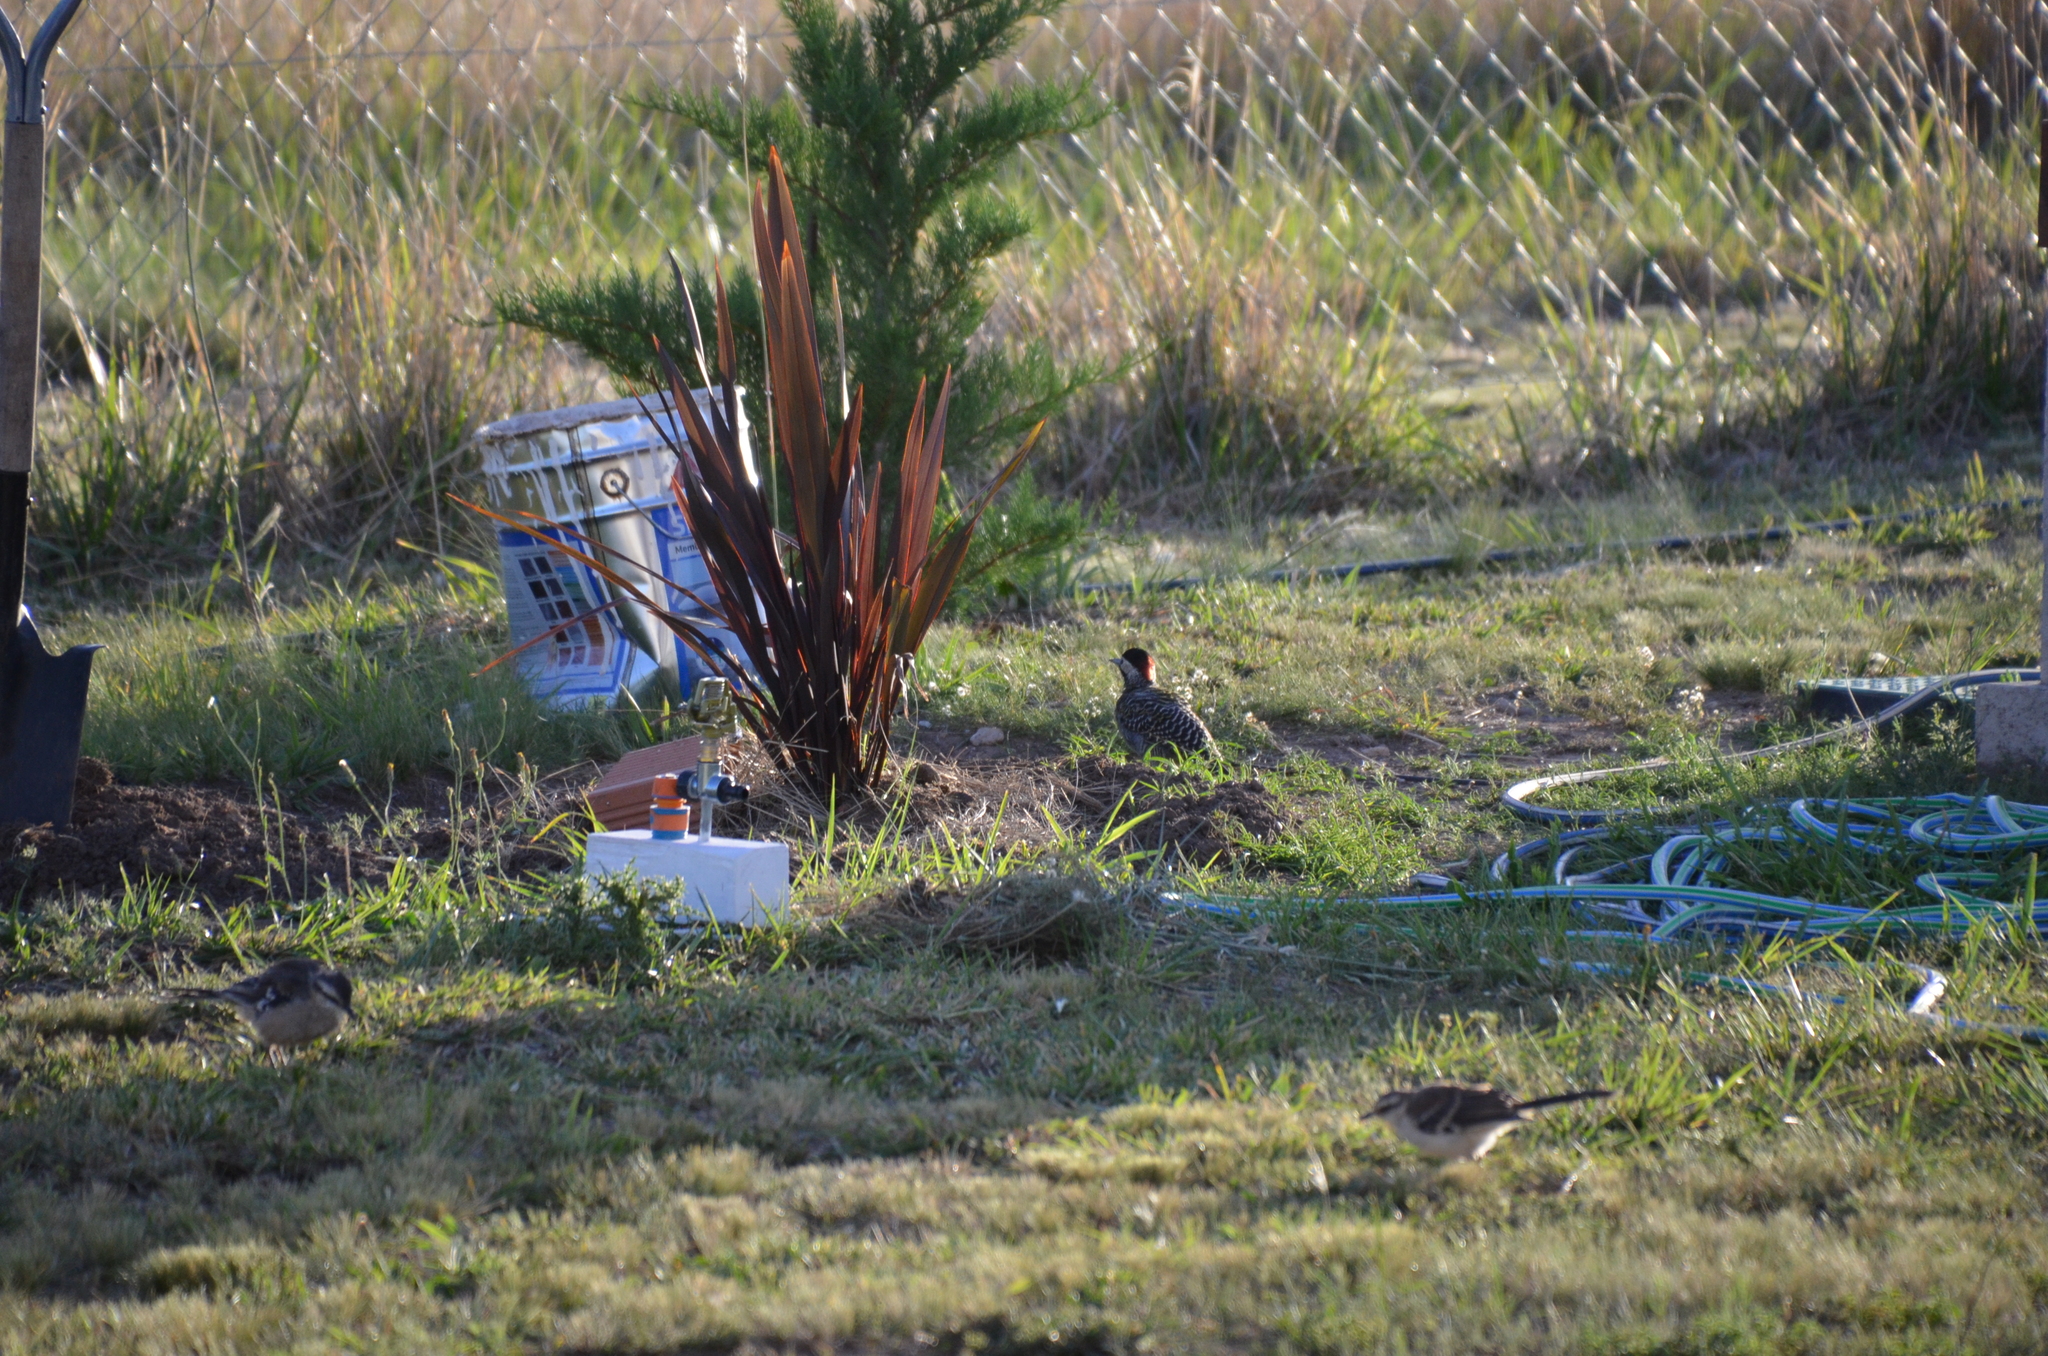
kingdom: Animalia
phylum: Chordata
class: Aves
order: Passeriformes
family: Mimidae
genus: Mimus
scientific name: Mimus saturninus
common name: Chalk-browed mockingbird
